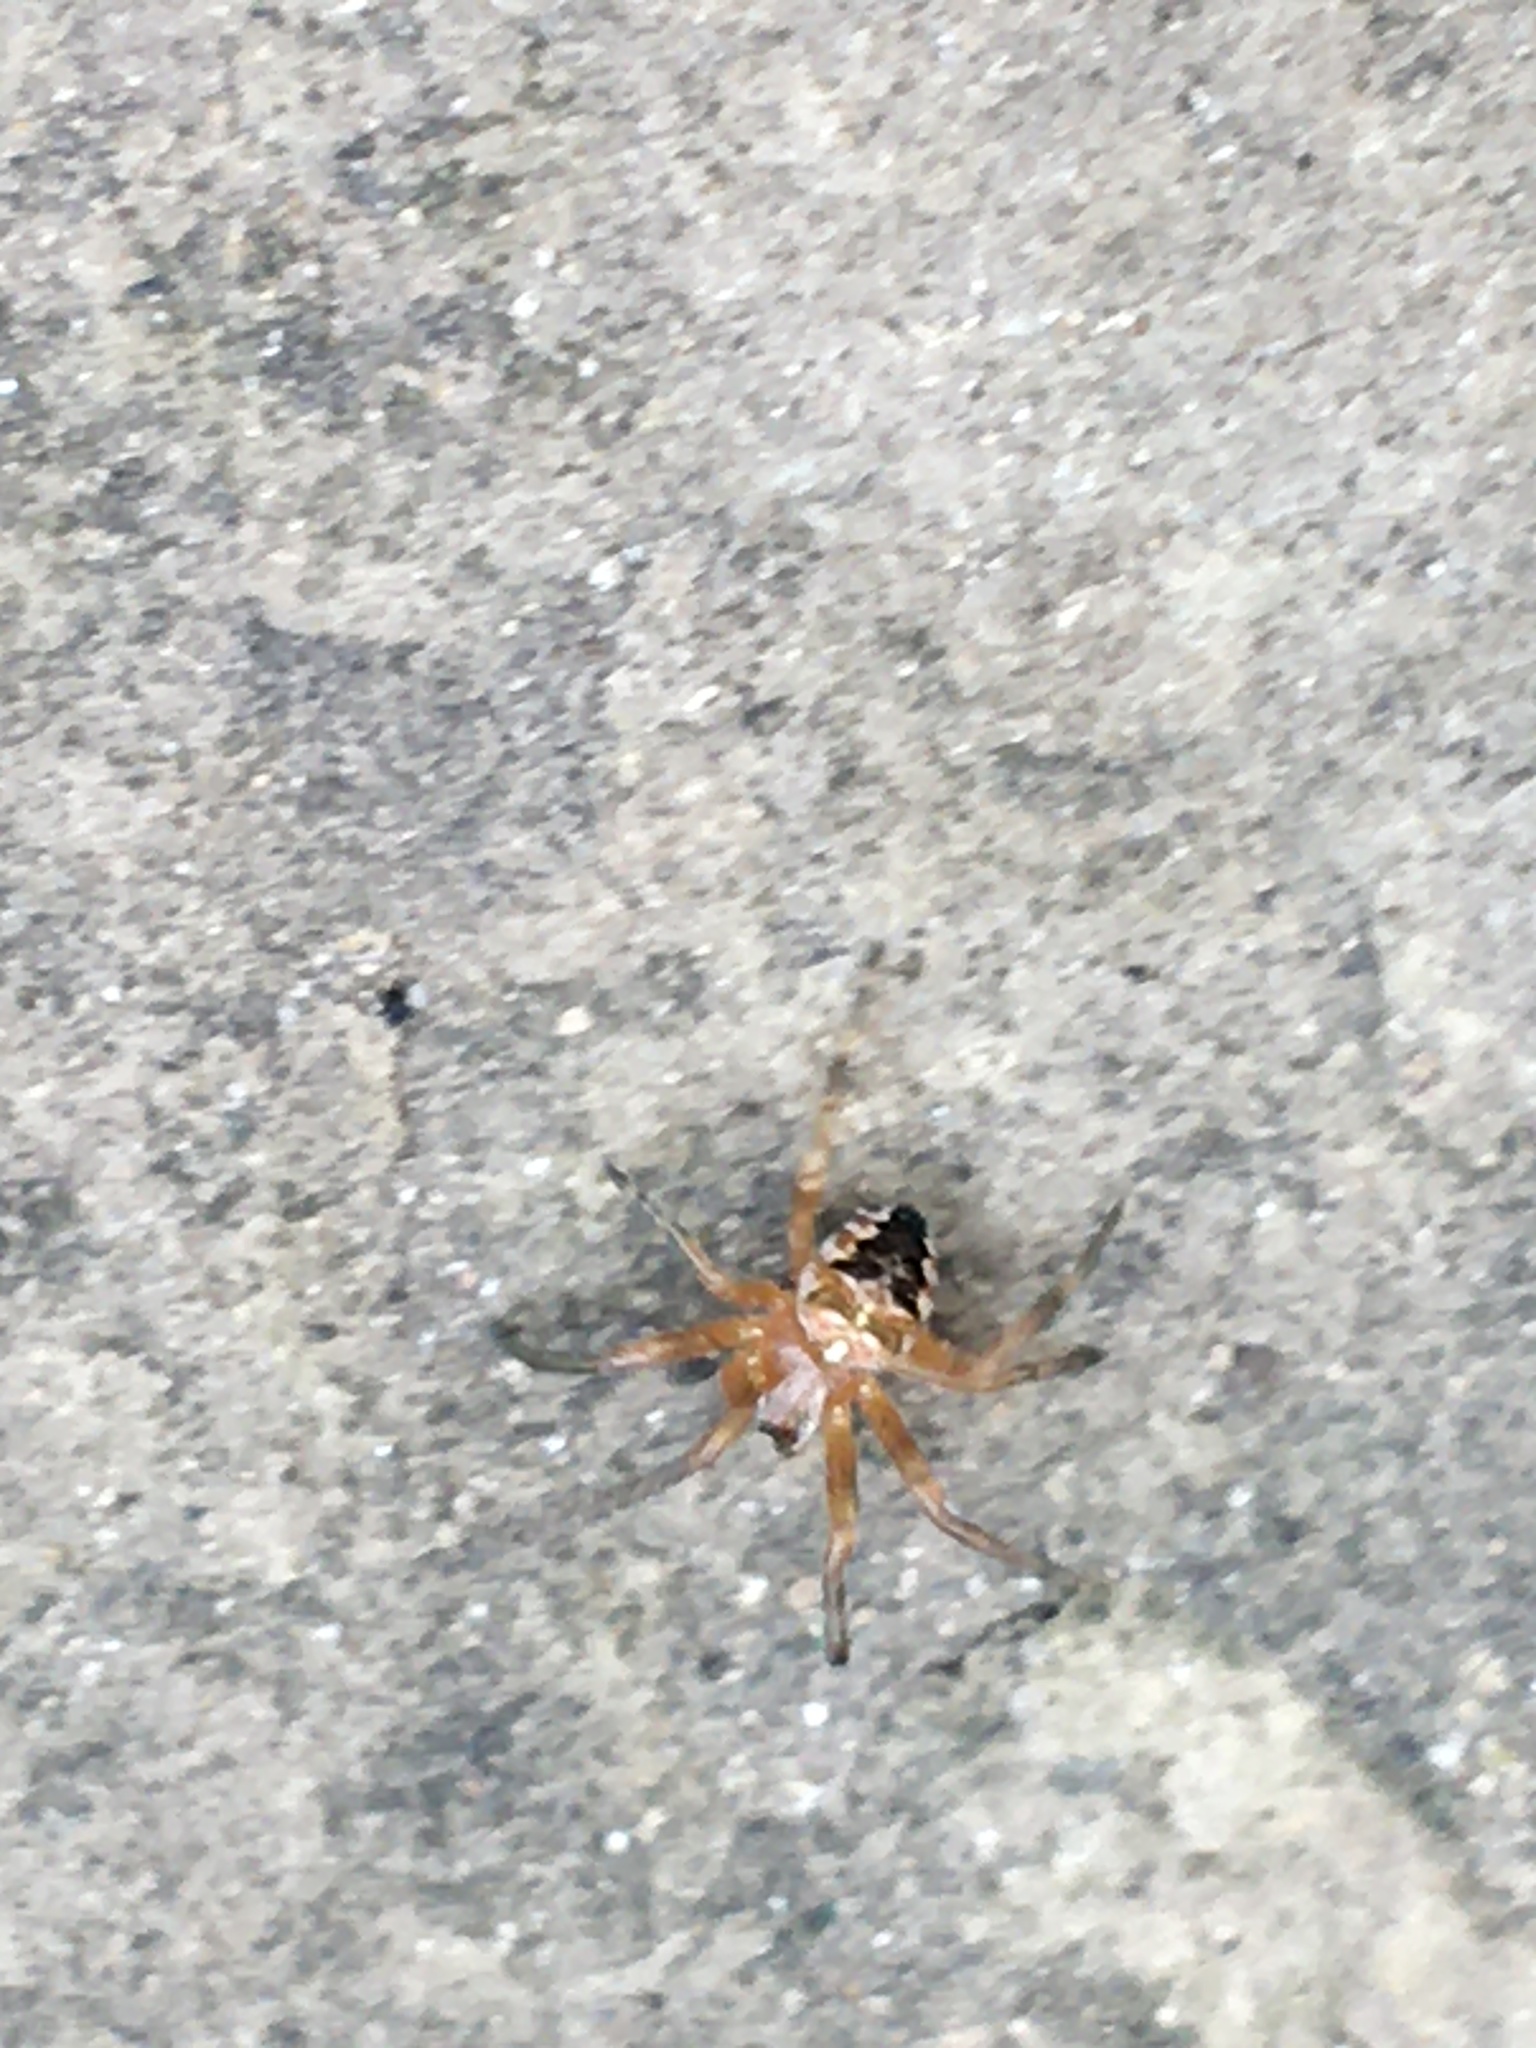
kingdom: Animalia
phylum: Arthropoda
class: Arachnida
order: Araneae
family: Araneidae
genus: Araneus
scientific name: Araneus diadematus
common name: Cross orbweaver
